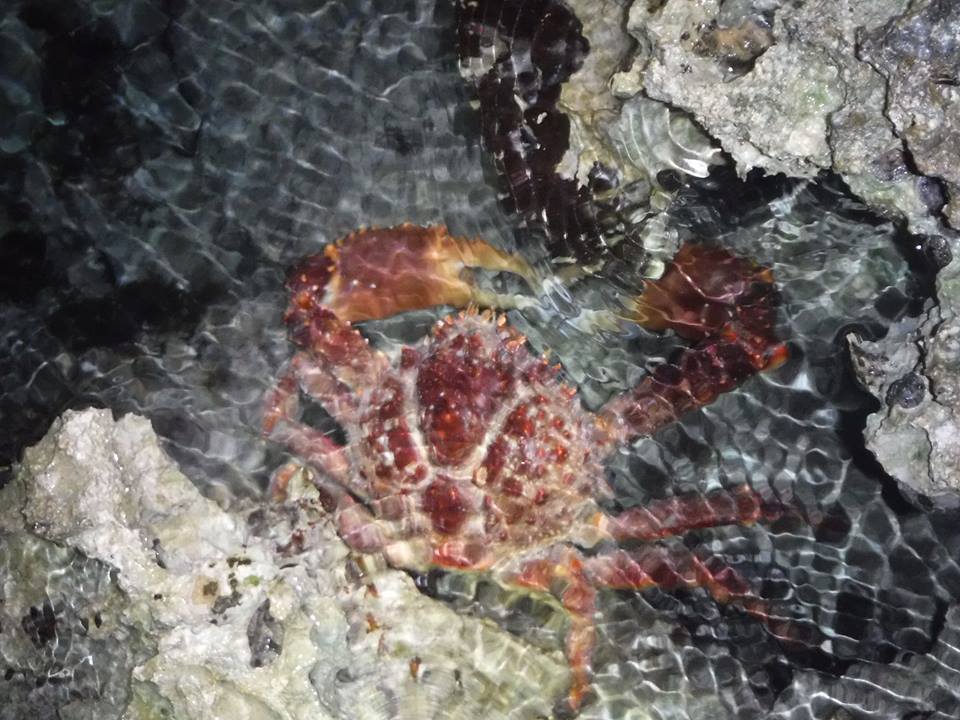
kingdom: Animalia
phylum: Arthropoda
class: Malacostraca
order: Decapoda
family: Mithracidae
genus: Maguimithrax
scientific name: Maguimithrax spinosissimus
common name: Spiny spider crab
